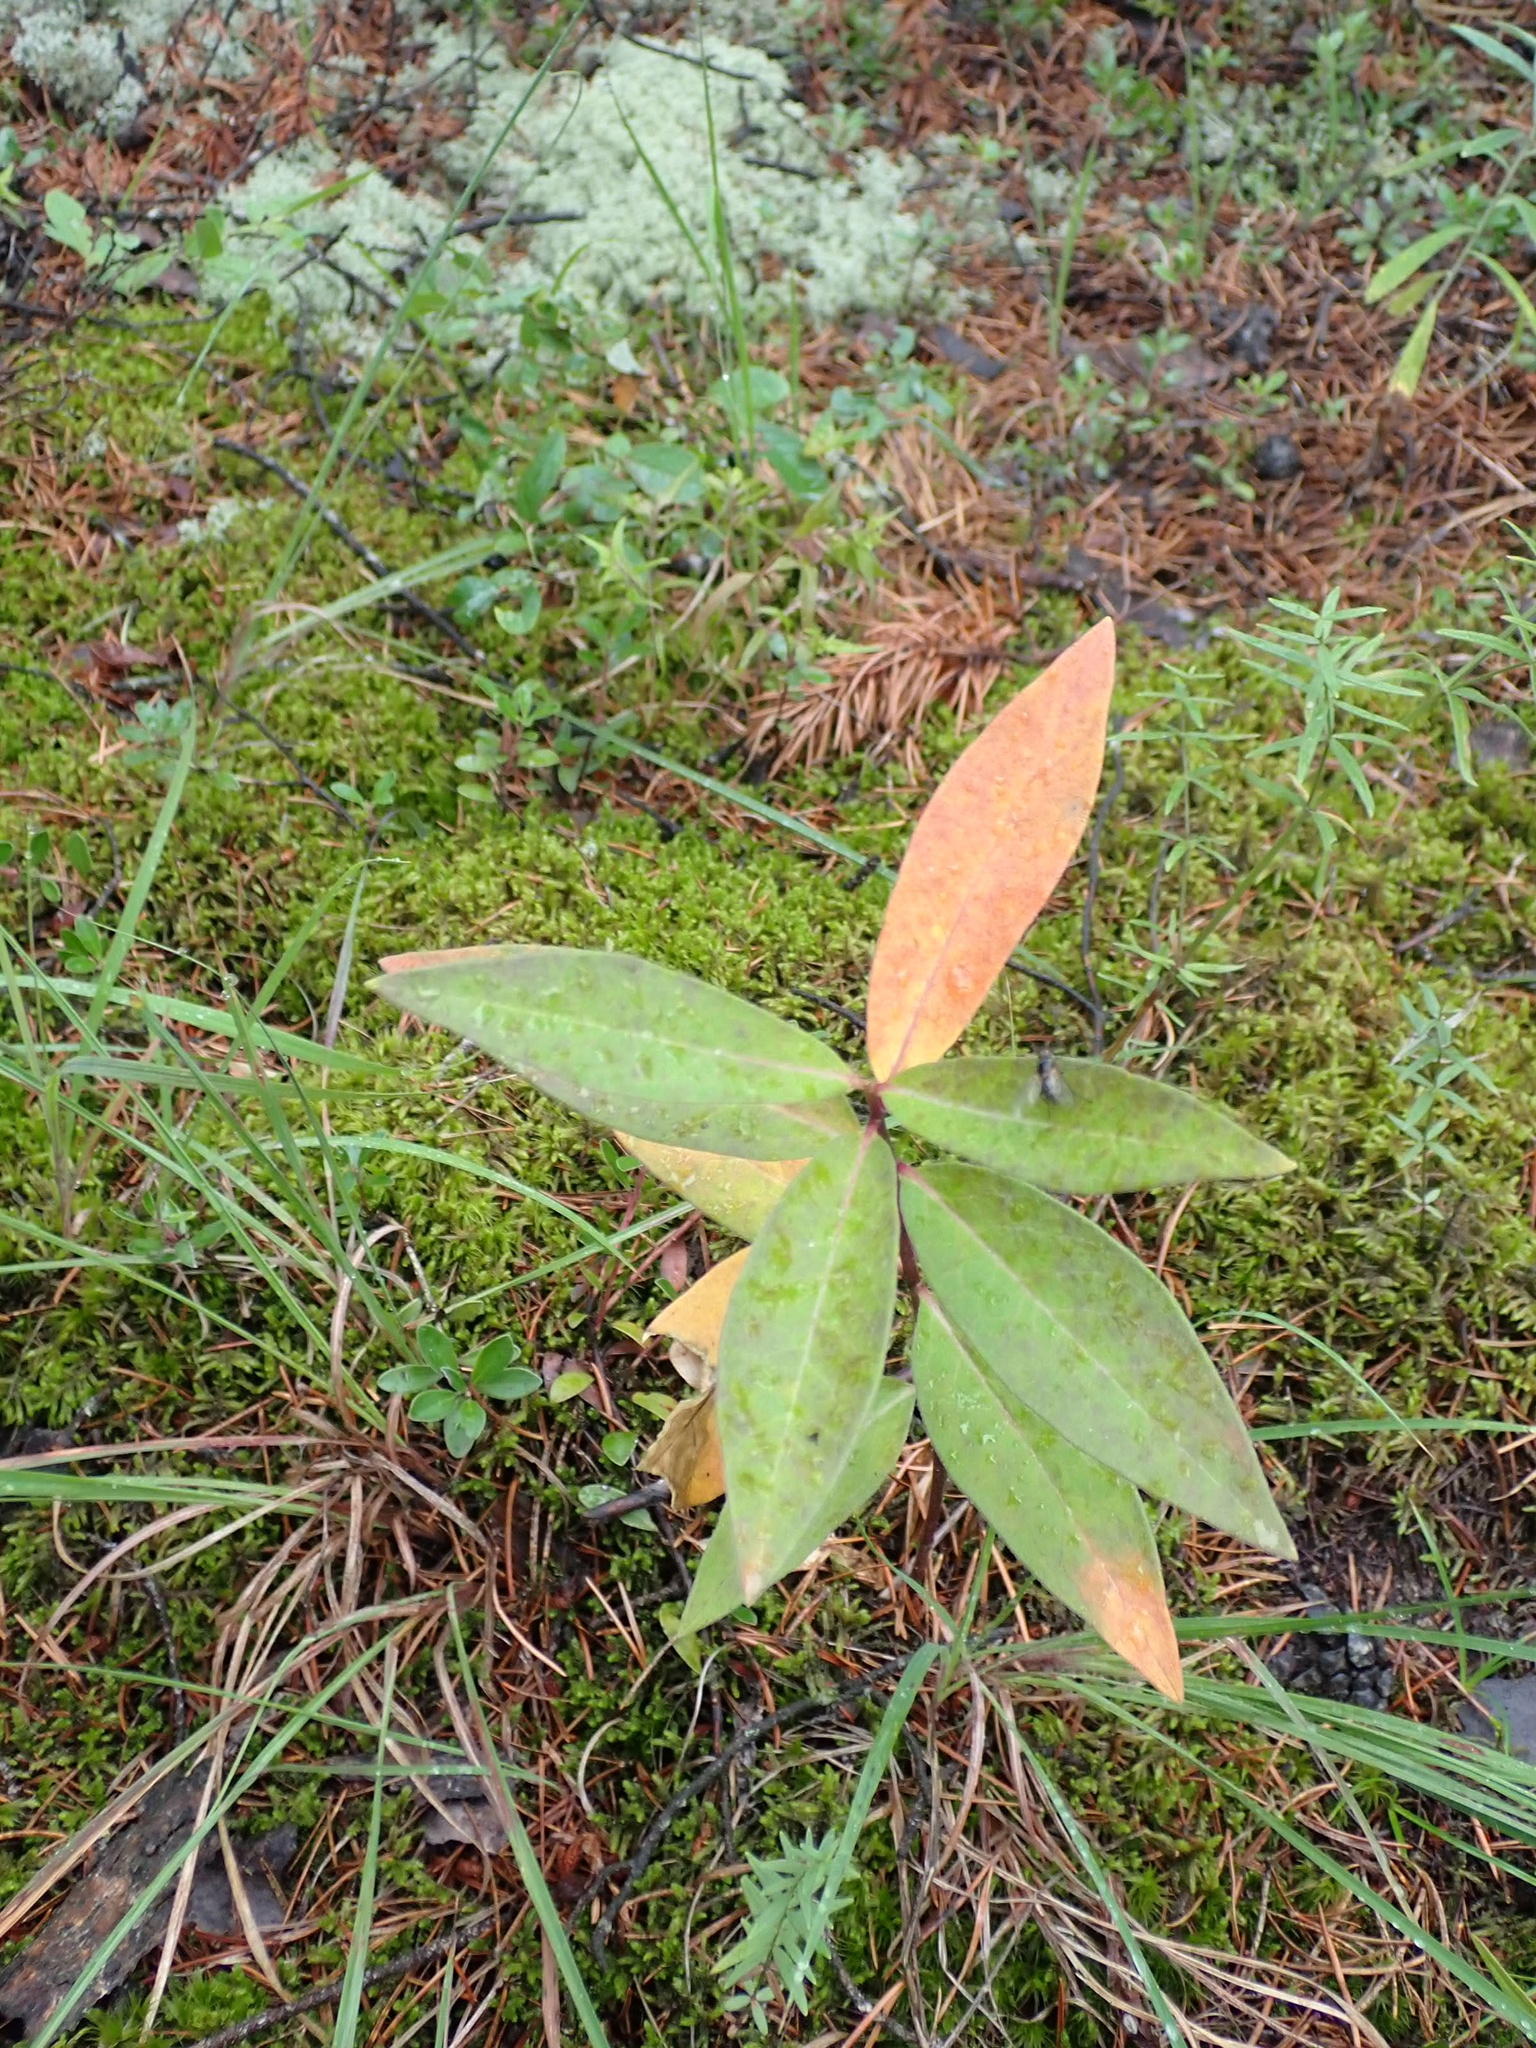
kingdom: Plantae
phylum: Tracheophyta
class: Magnoliopsida
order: Gentianales
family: Apocynaceae
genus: Asclepias
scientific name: Asclepias ovalifolia
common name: Dwarf milkweed
